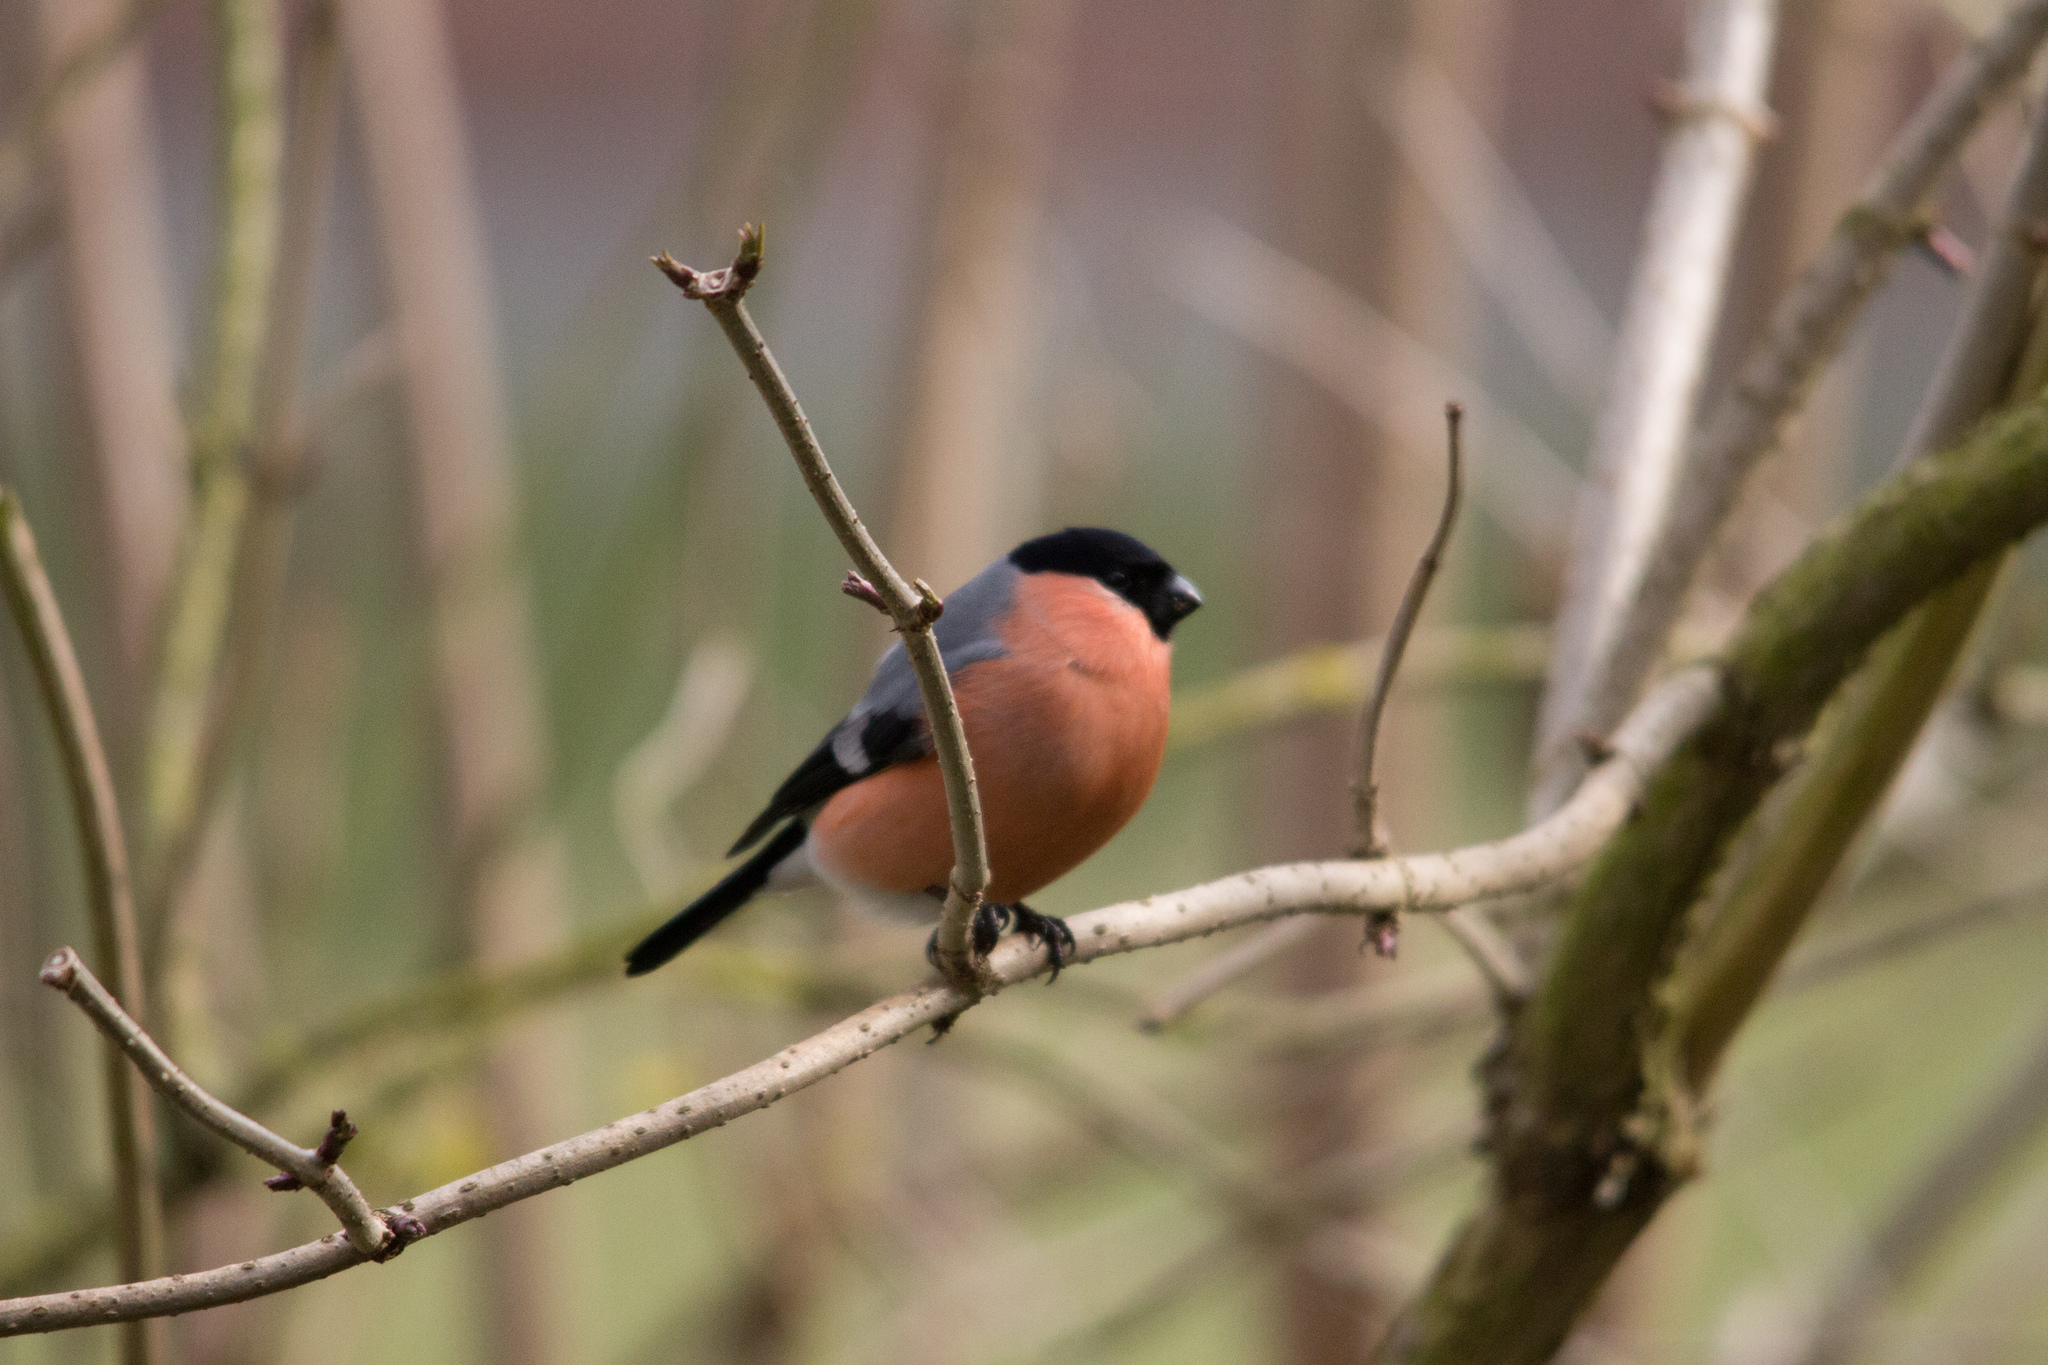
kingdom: Animalia
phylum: Chordata
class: Aves
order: Passeriformes
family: Fringillidae
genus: Pyrrhula
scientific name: Pyrrhula pyrrhula
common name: Eurasian bullfinch
